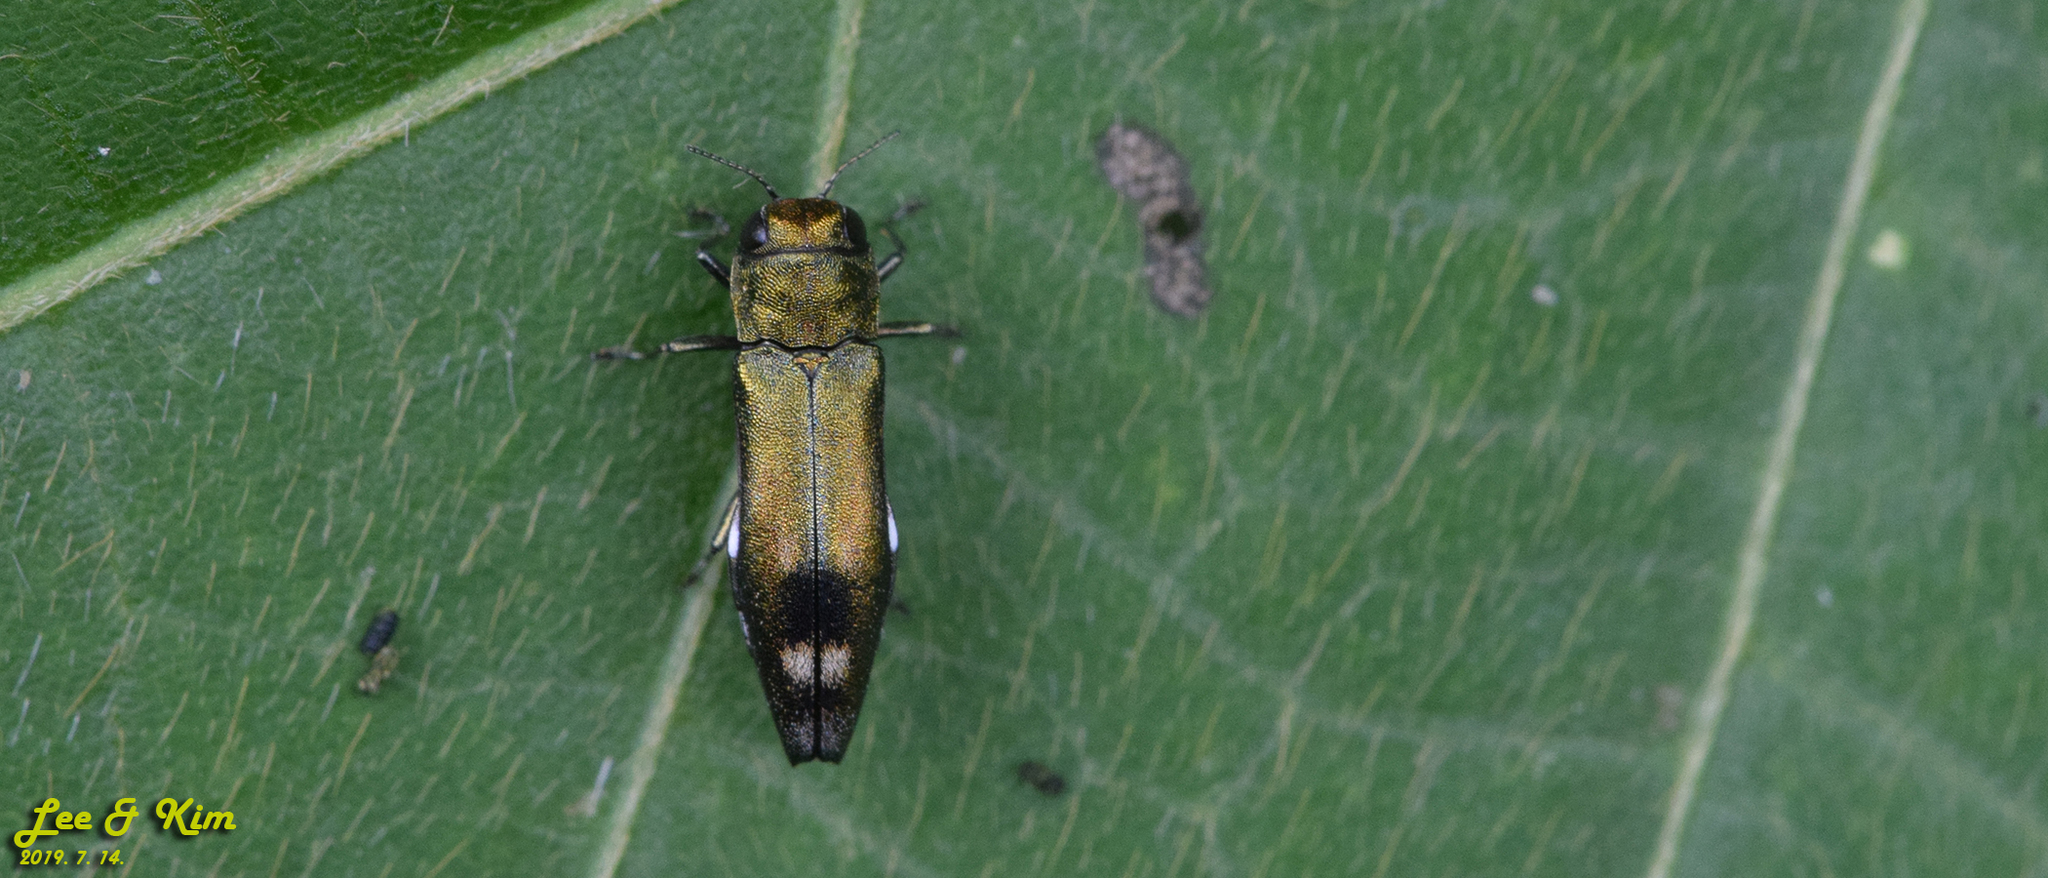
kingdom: Animalia
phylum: Arthropoda
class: Insecta
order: Coleoptera
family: Buprestidae
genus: Agrilus
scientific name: Agrilus chujoi
